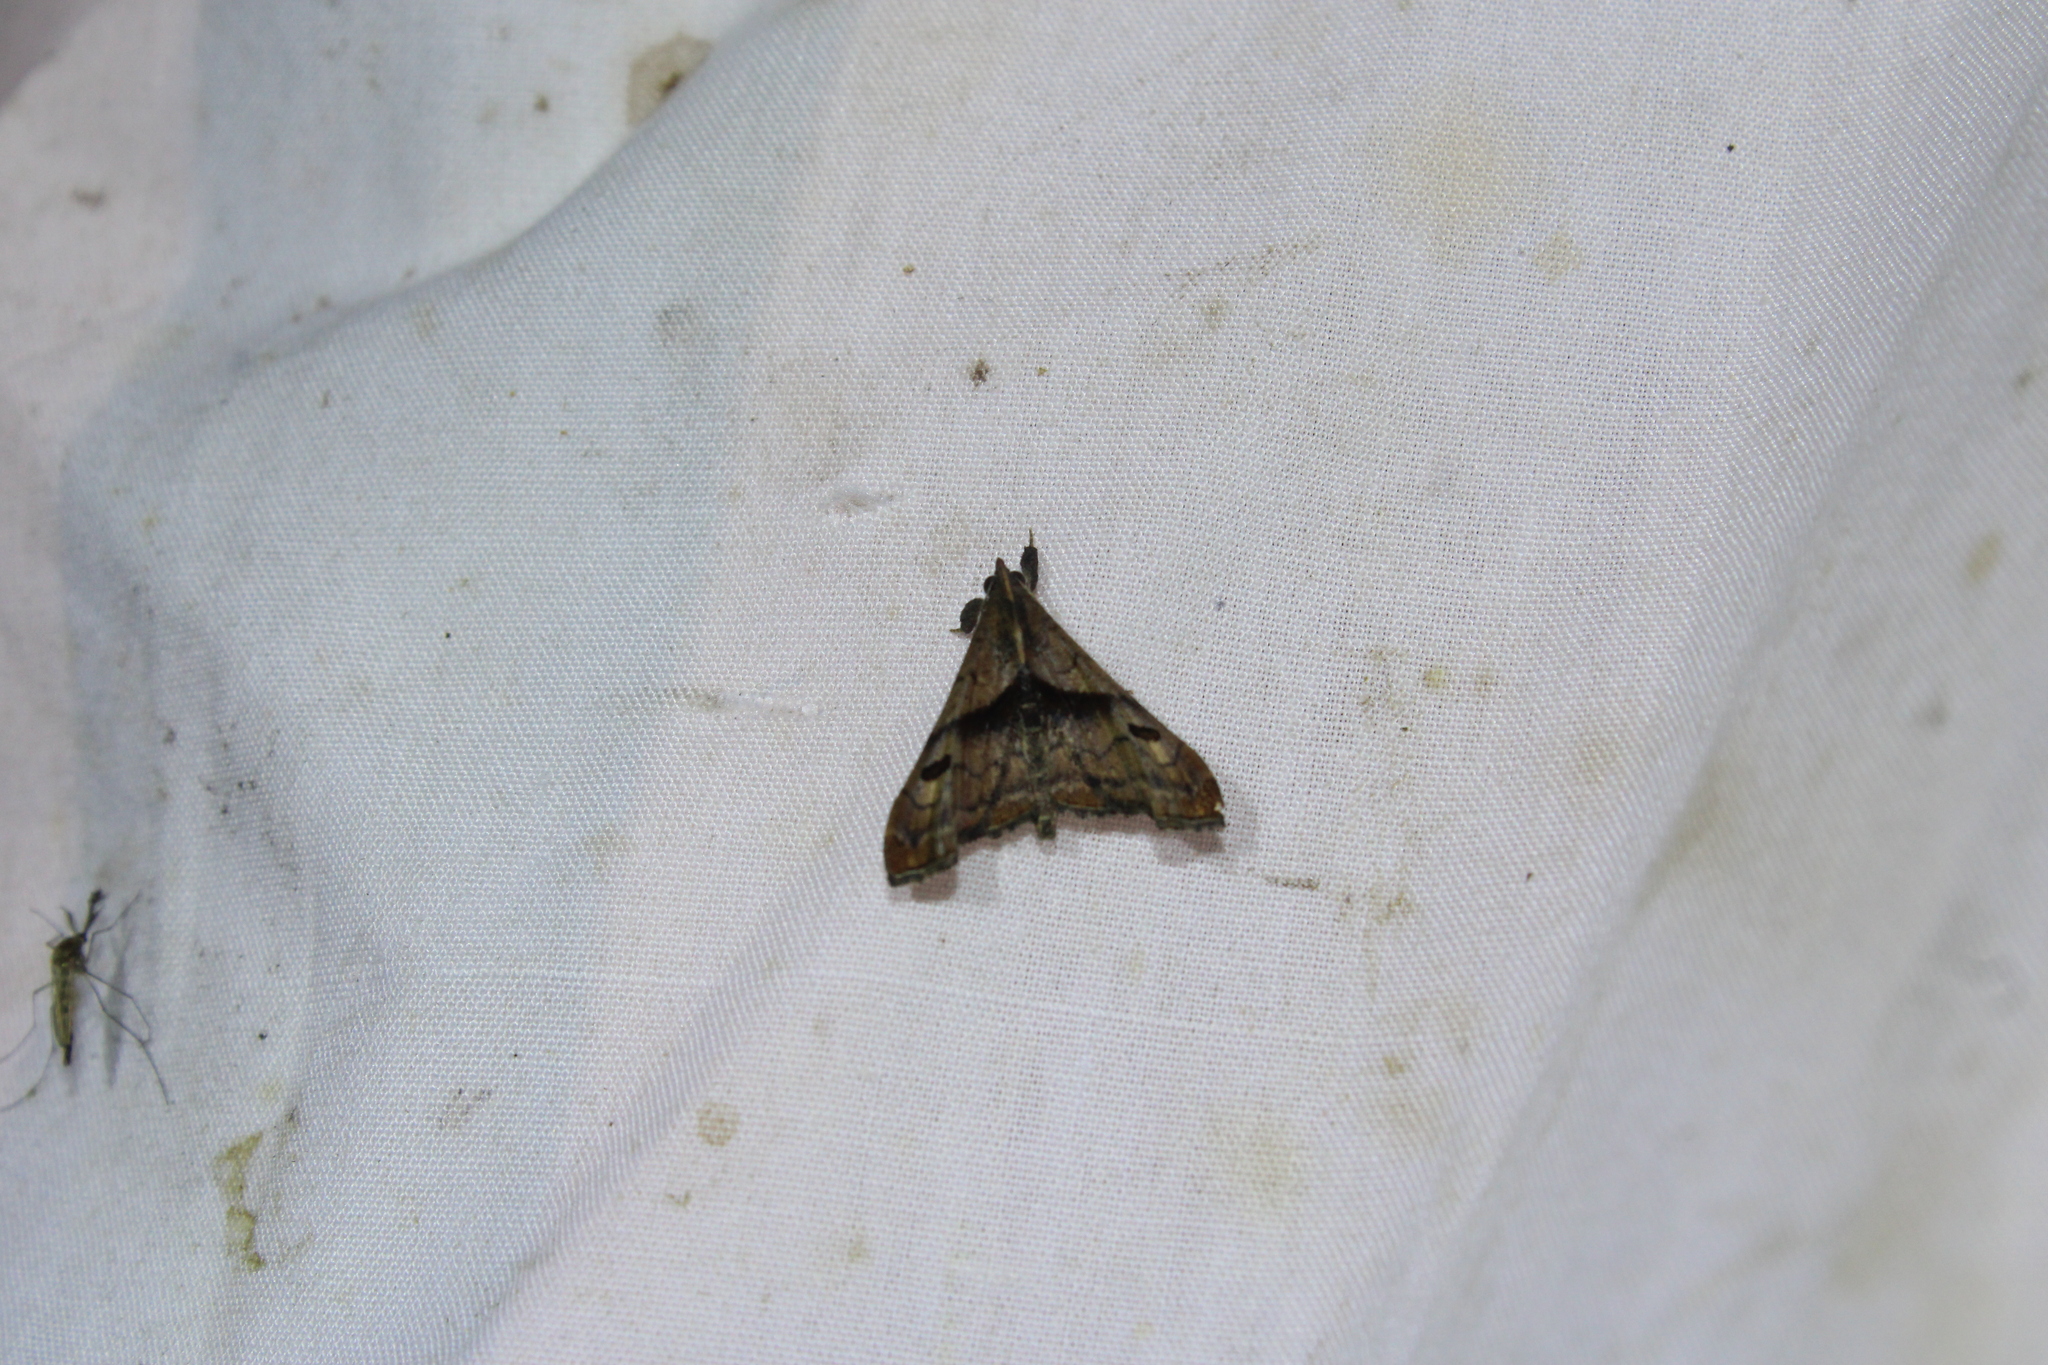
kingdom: Animalia
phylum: Arthropoda
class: Insecta
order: Lepidoptera
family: Erebidae
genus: Palthis
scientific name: Palthis angulalis
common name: Dark-spotted palthis moth
